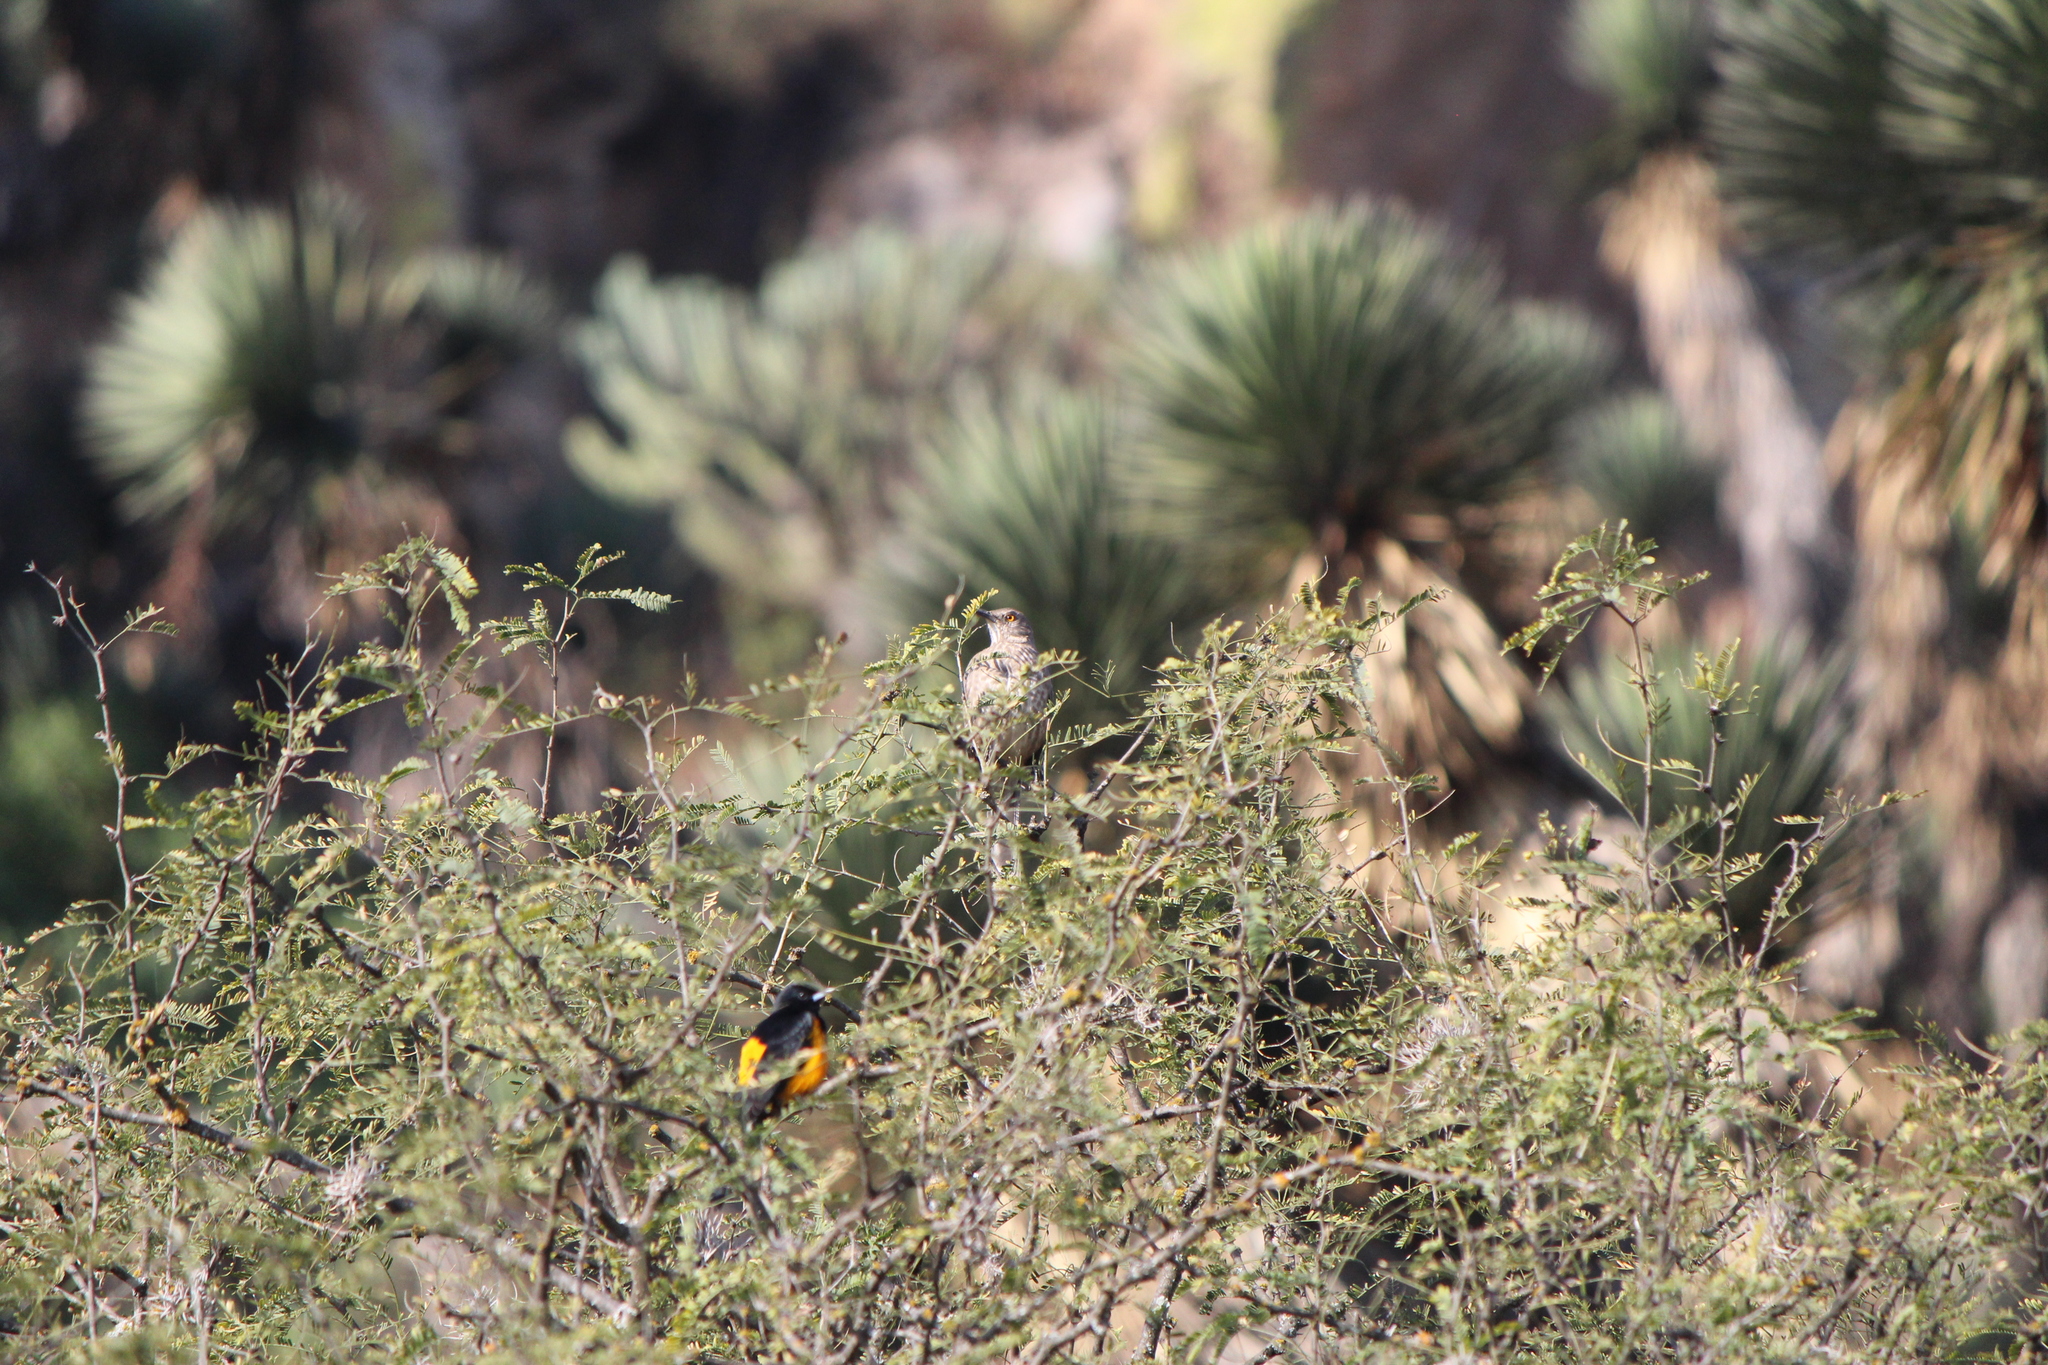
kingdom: Animalia
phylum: Chordata
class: Aves
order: Passeriformes
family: Mimidae
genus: Toxostoma
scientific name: Toxostoma curvirostre
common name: Curve-billed thrasher
